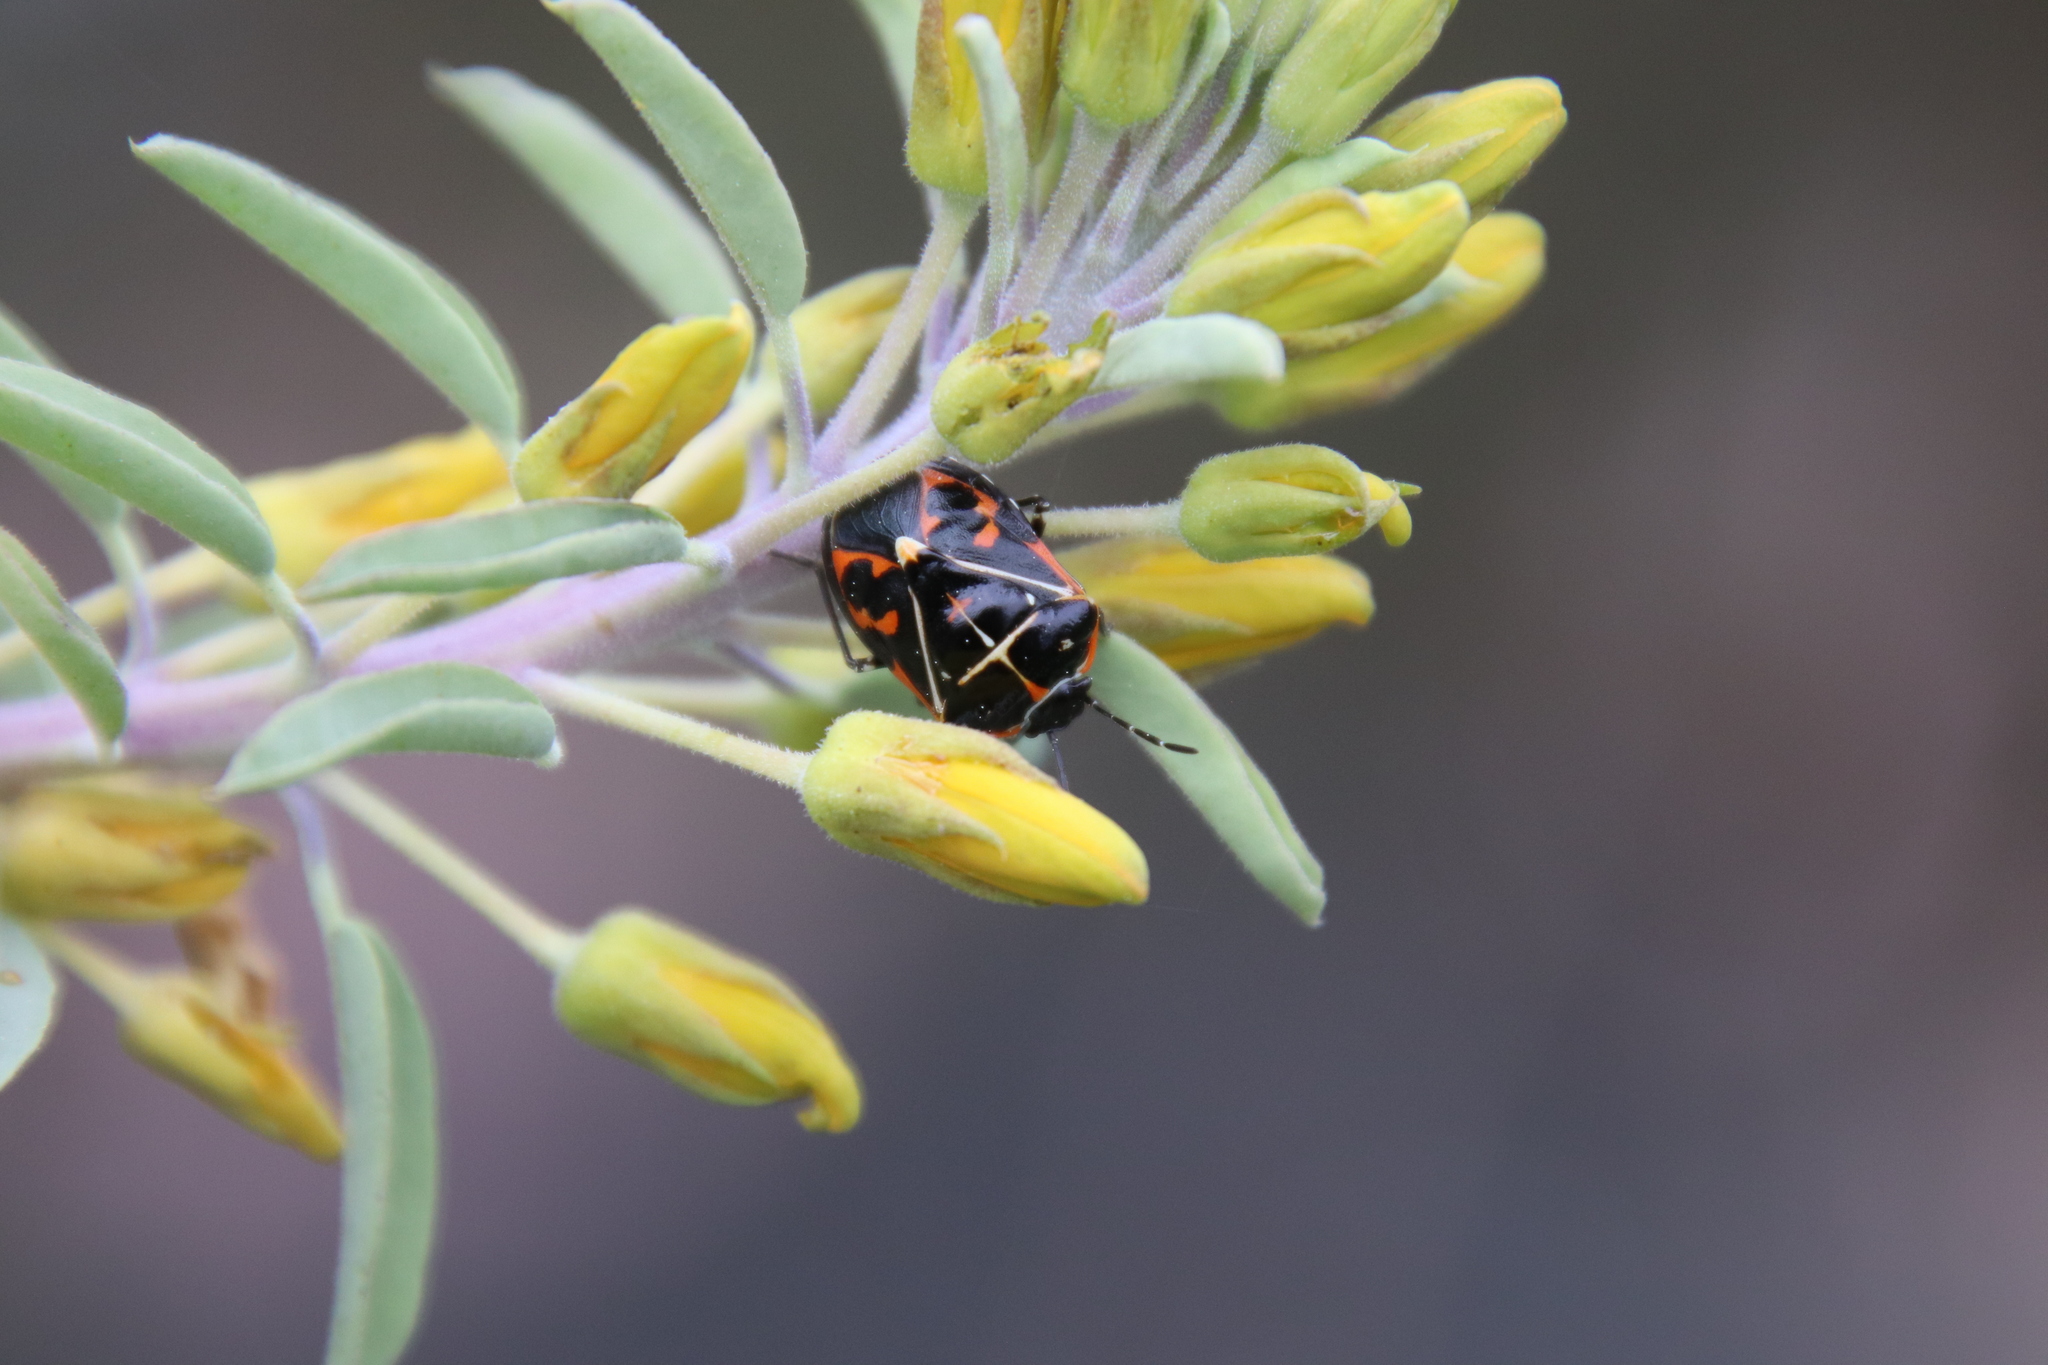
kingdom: Animalia
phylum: Arthropoda
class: Insecta
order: Hemiptera
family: Pentatomidae
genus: Murgantia
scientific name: Murgantia histrionica
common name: Harlequin bug
